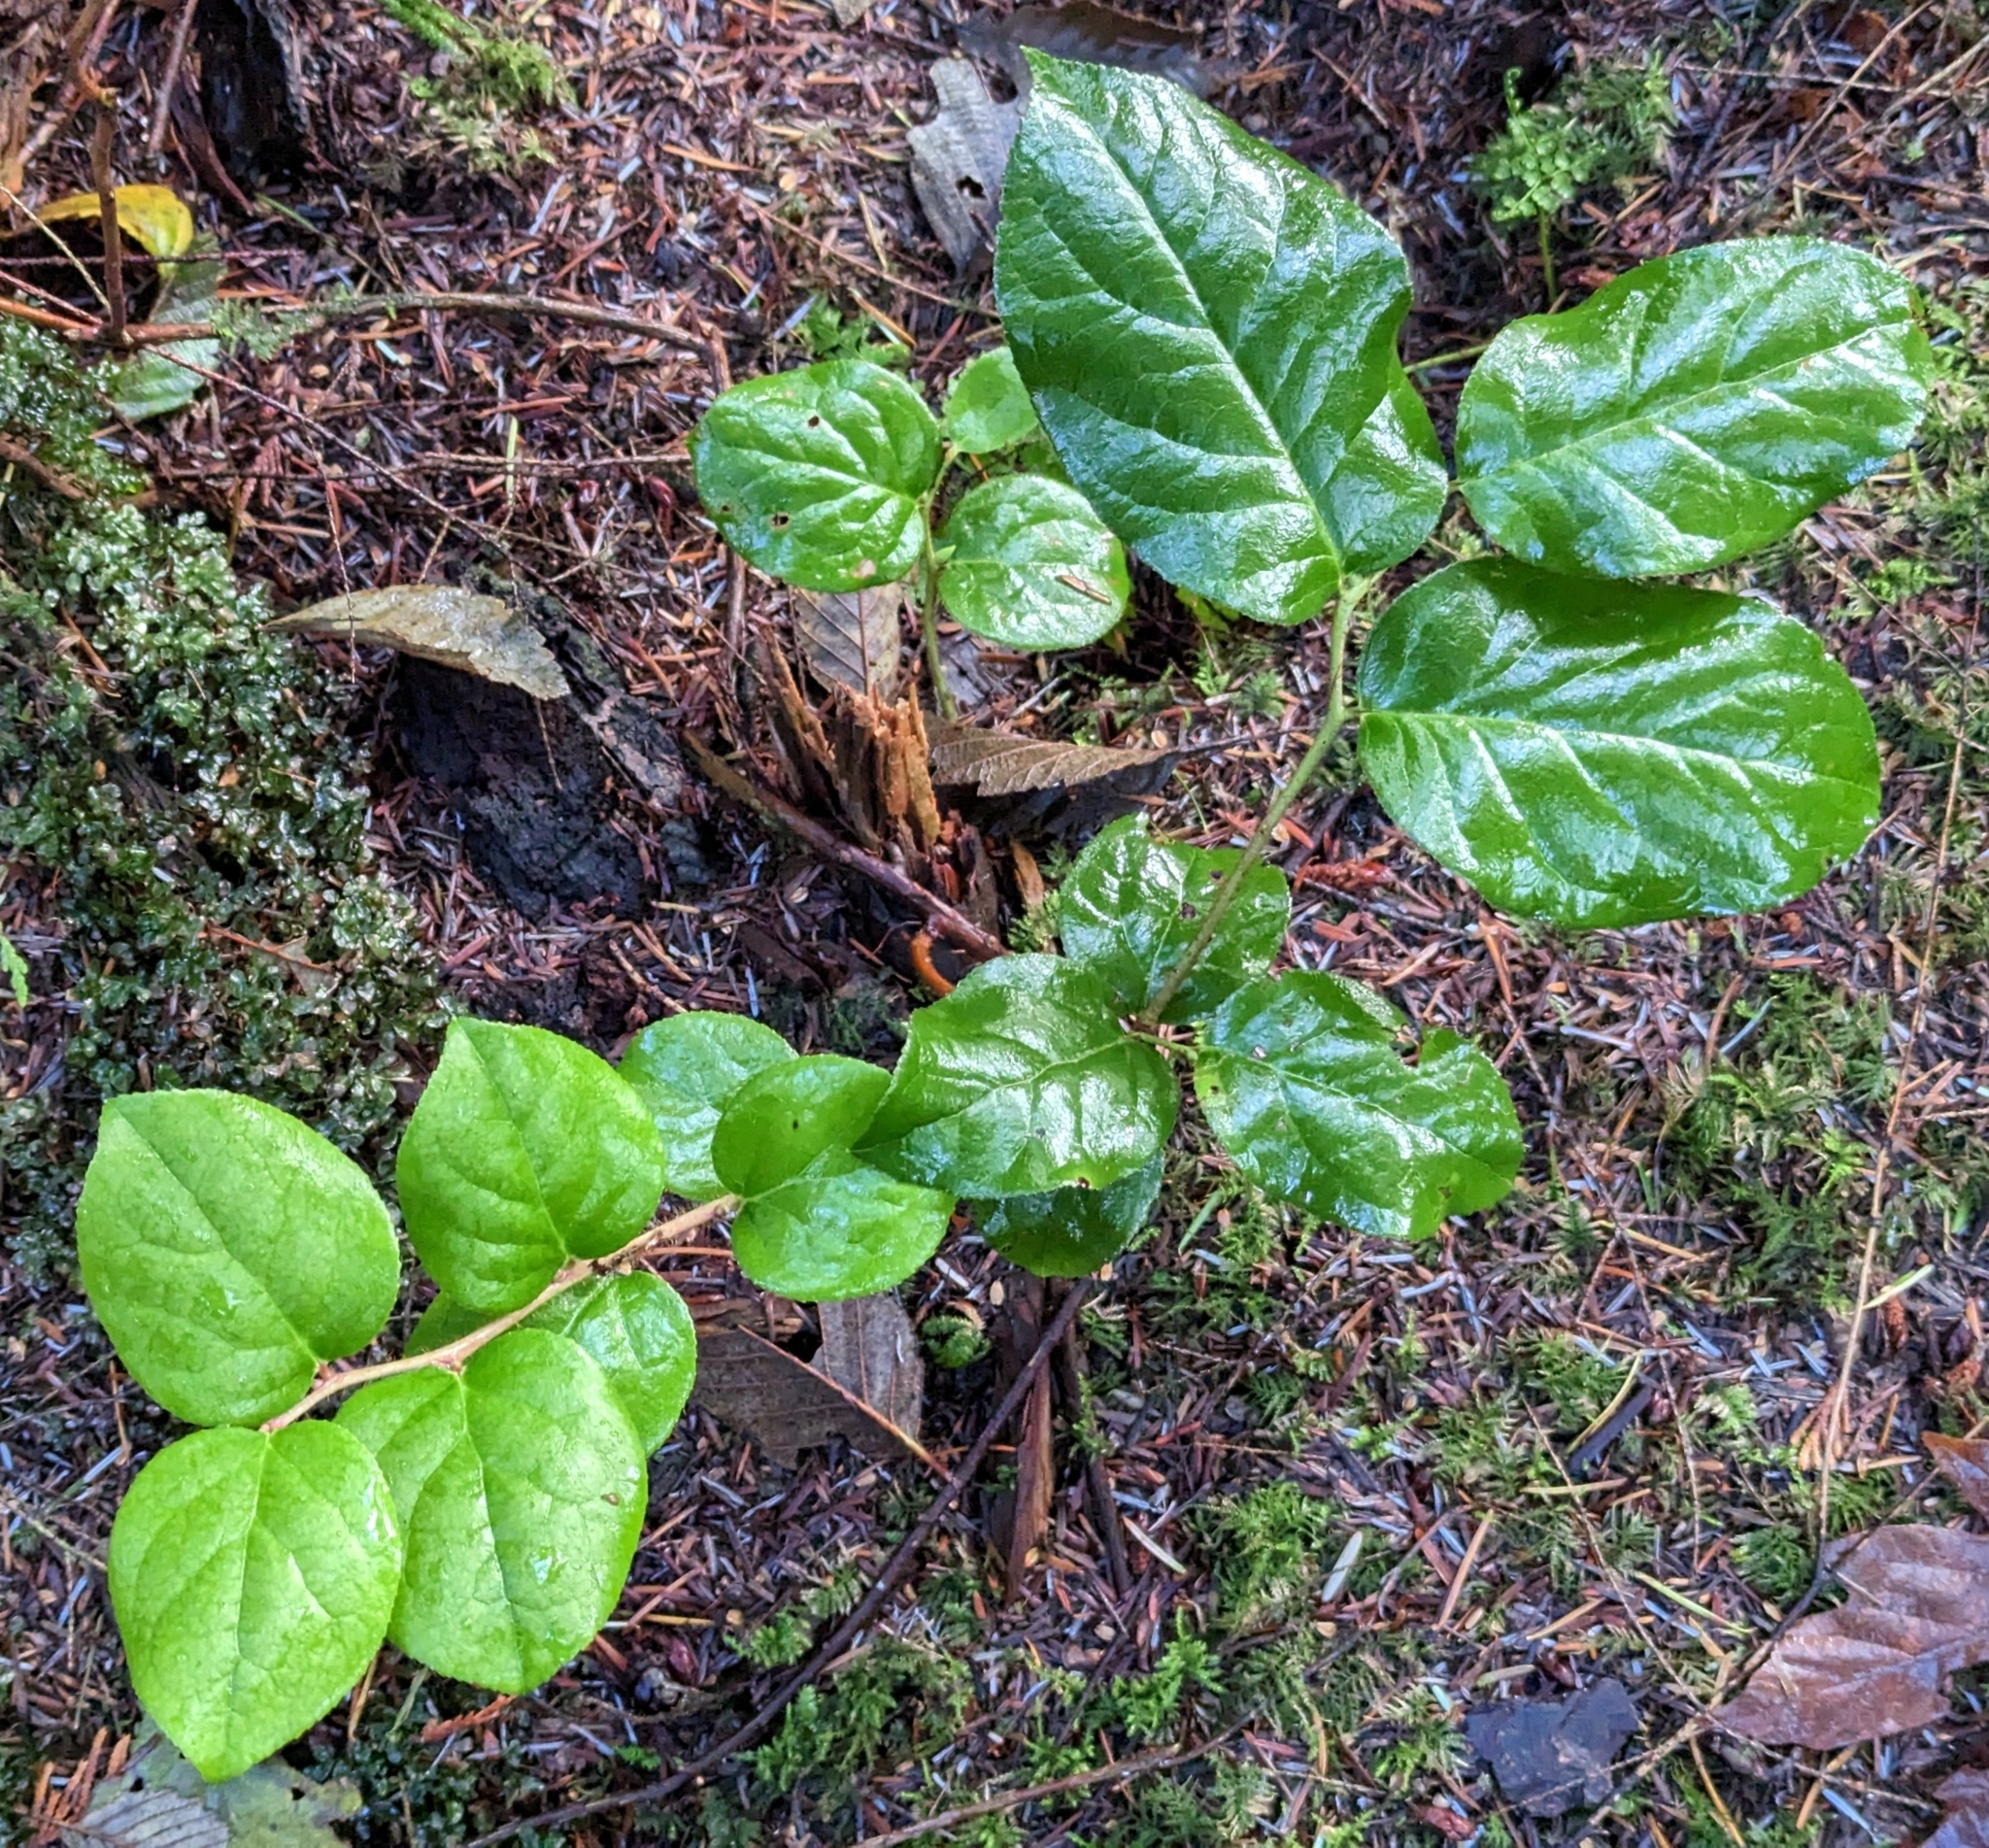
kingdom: Plantae
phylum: Tracheophyta
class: Magnoliopsida
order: Ericales
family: Ericaceae
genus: Gaultheria
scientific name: Gaultheria shallon
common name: Shallon
